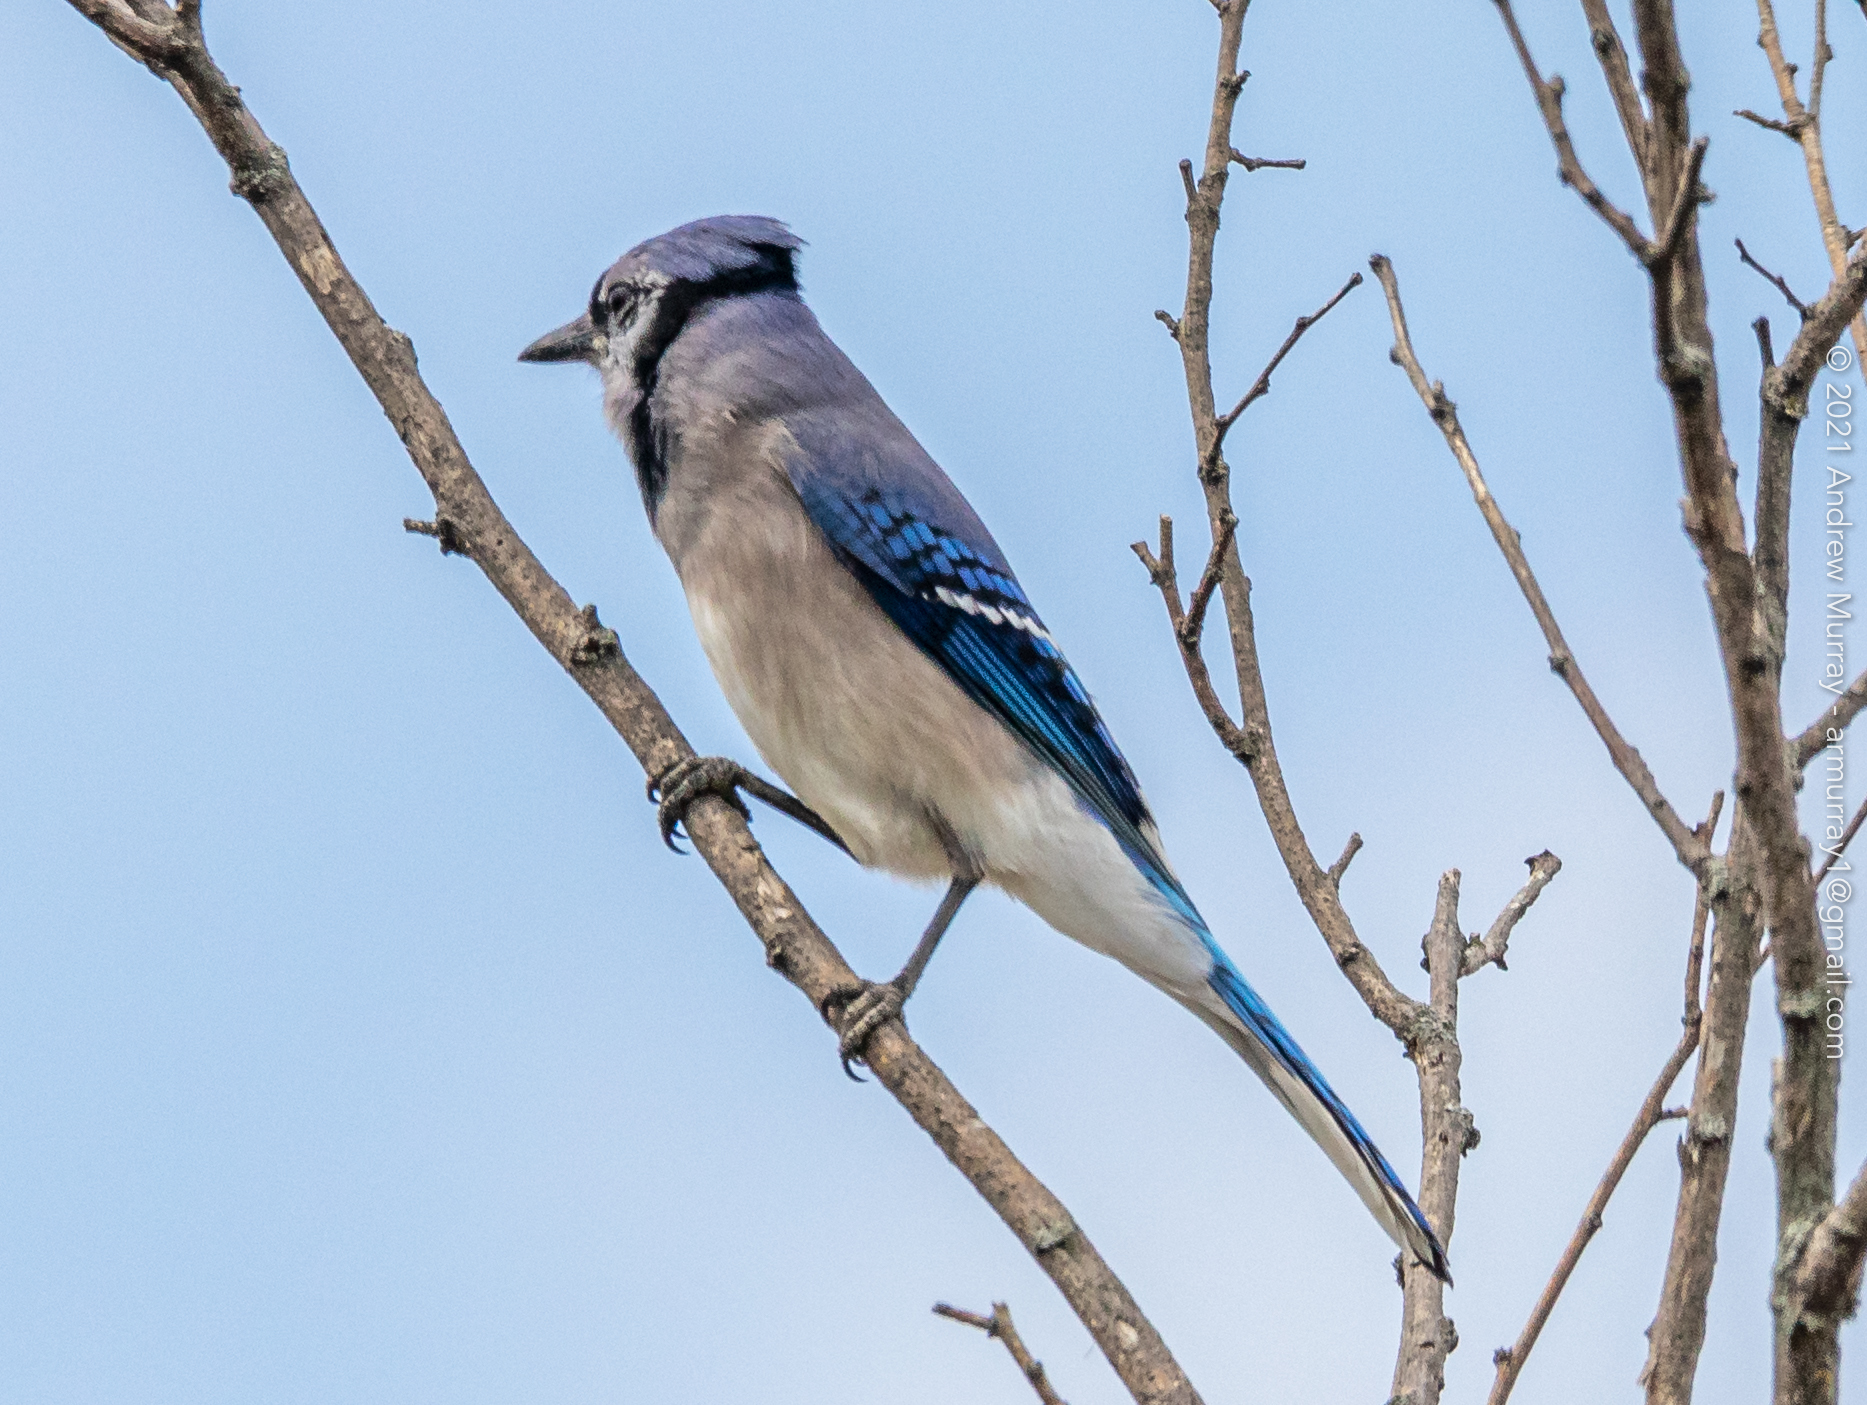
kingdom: Animalia
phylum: Chordata
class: Aves
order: Passeriformes
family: Corvidae
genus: Cyanocitta
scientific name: Cyanocitta cristata
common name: Blue jay
